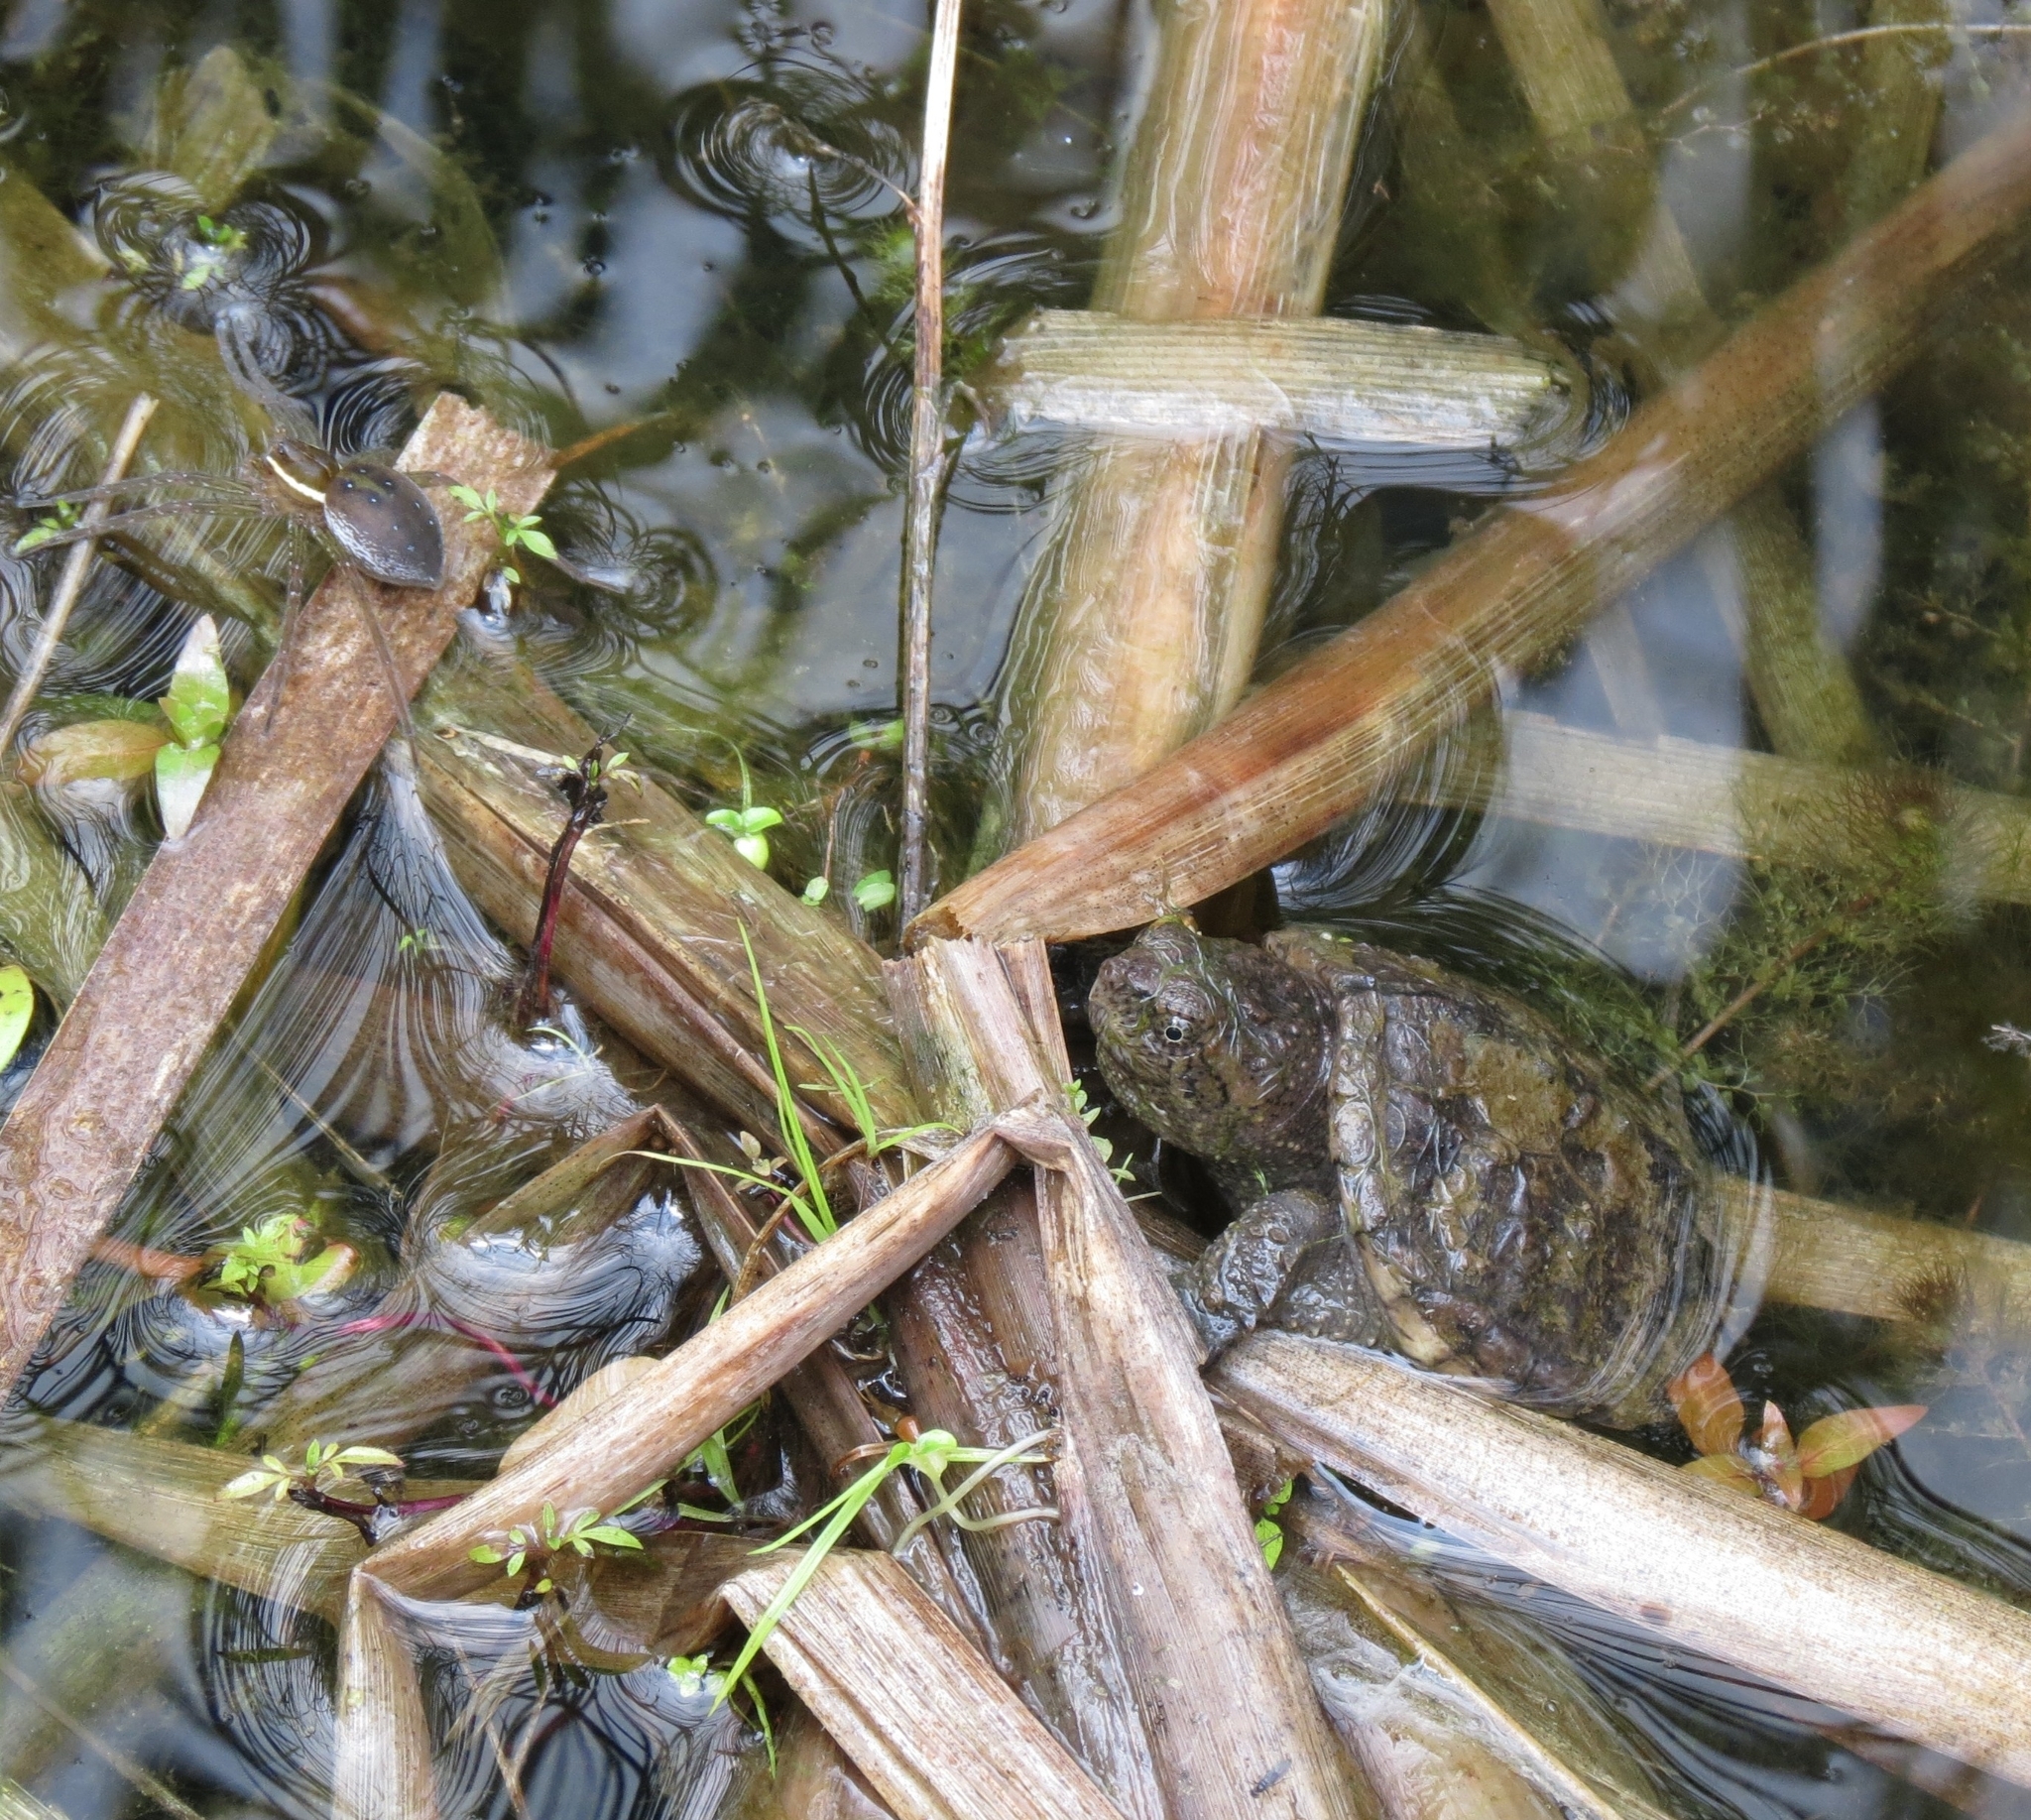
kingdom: Animalia
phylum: Chordata
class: Testudines
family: Chelydridae
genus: Chelydra
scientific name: Chelydra serpentina
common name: Common snapping turtle
